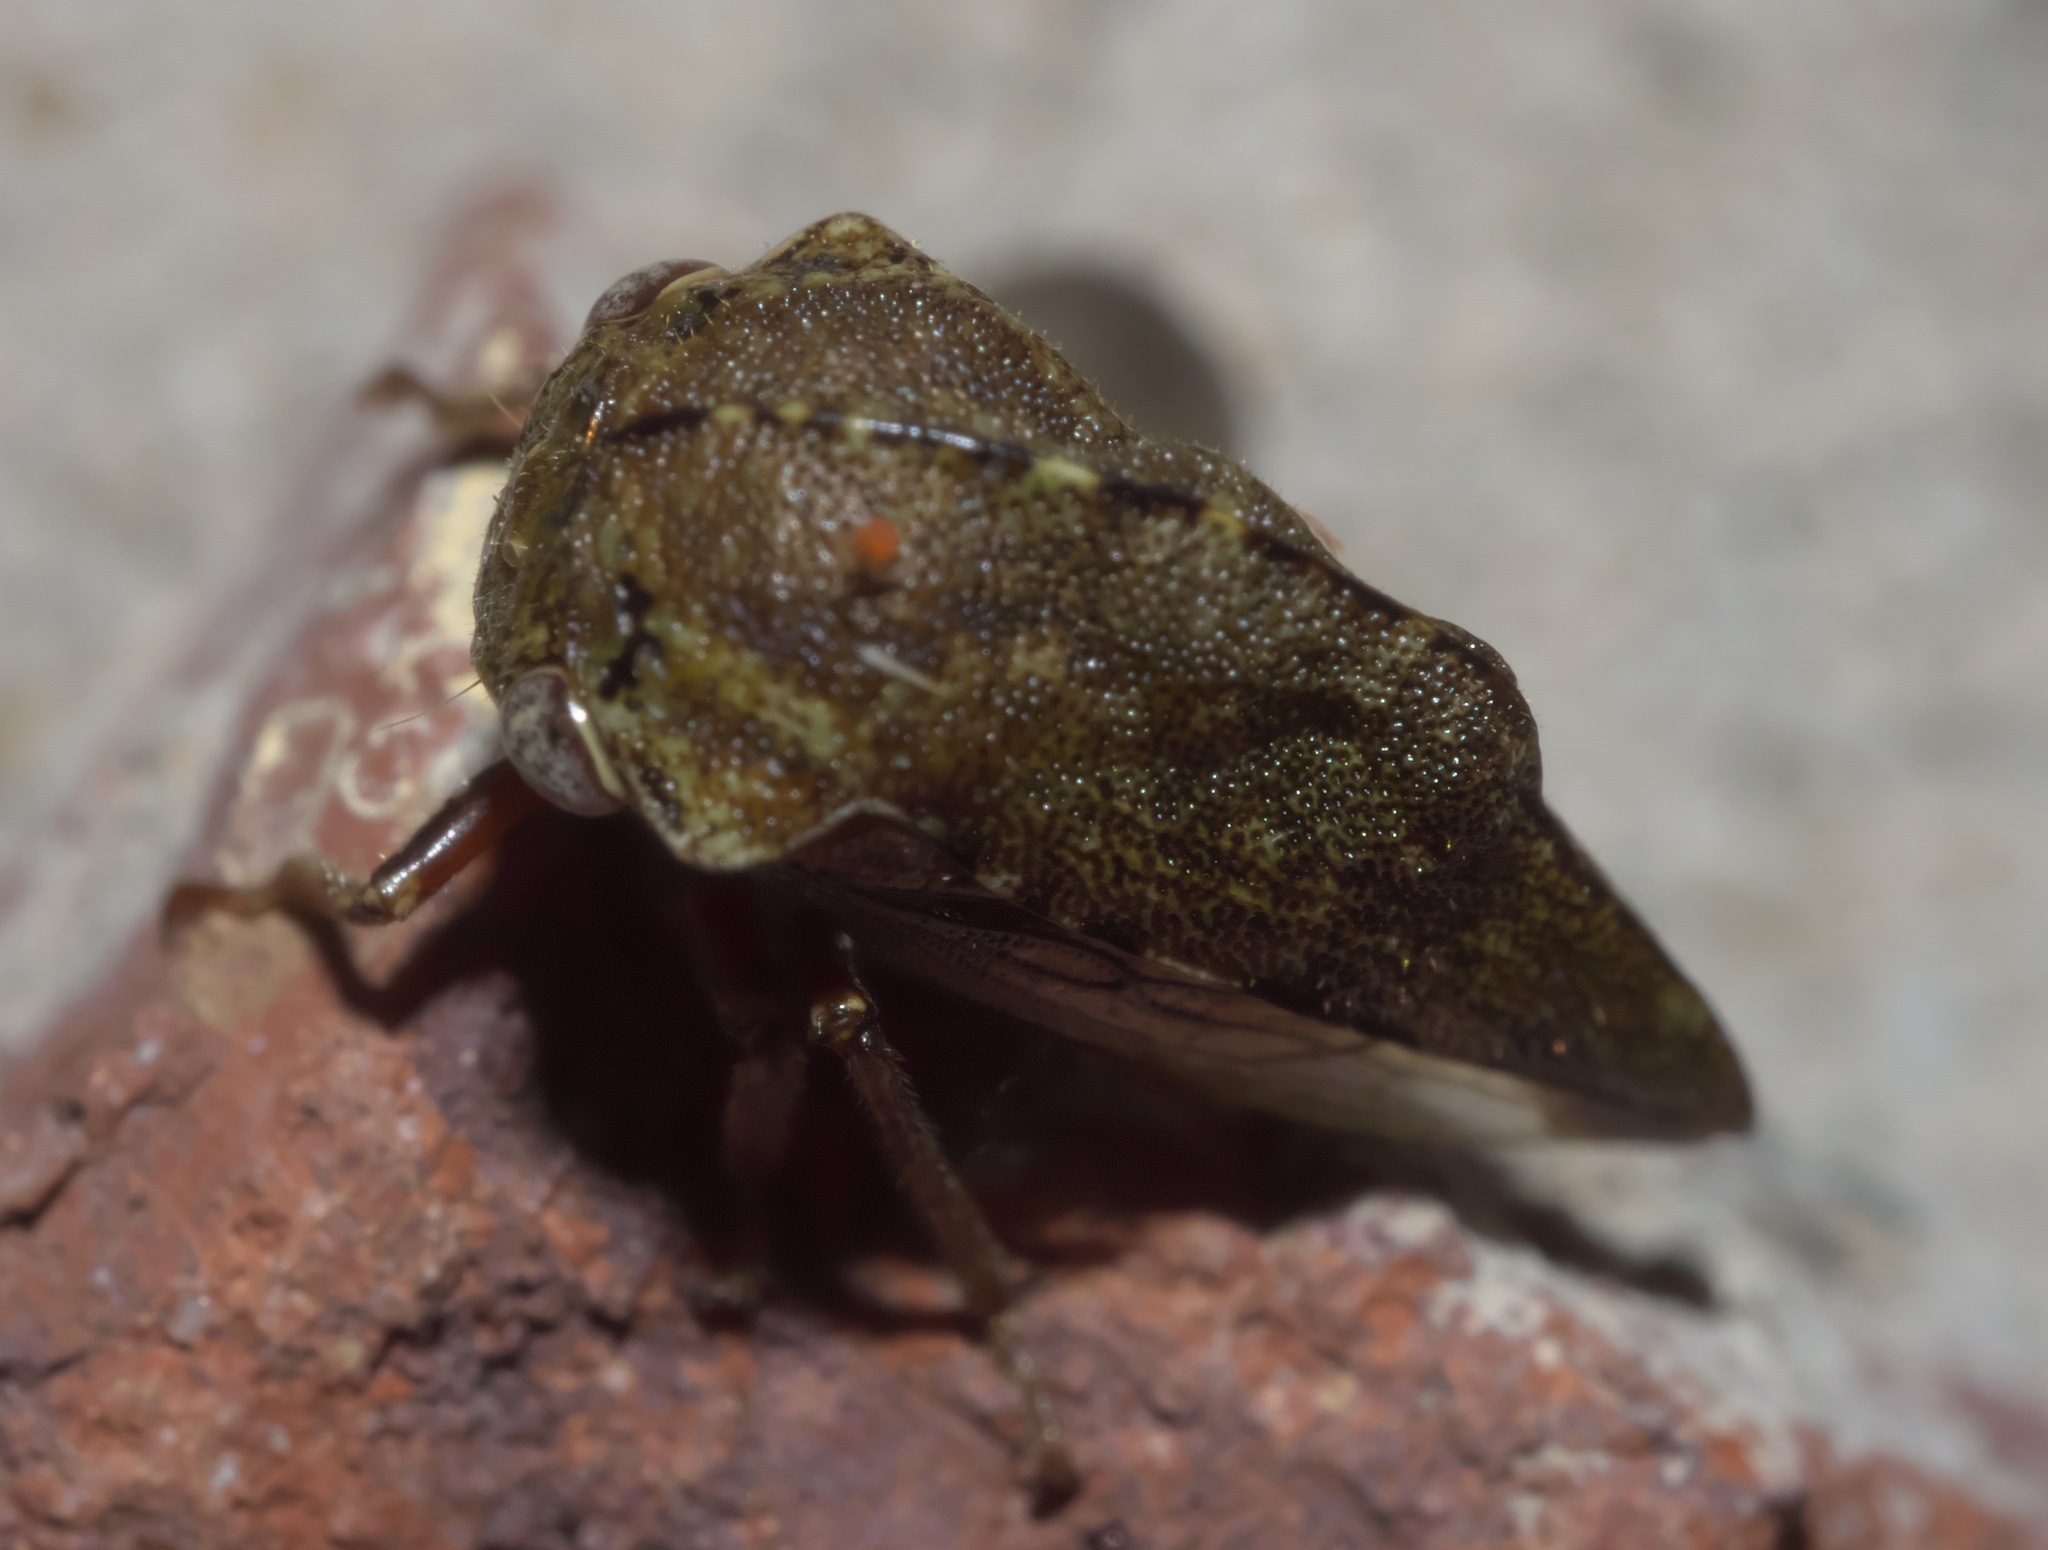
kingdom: Animalia
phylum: Arthropoda
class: Insecta
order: Hemiptera
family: Membracidae
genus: Telamona
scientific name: Telamona reclivata
